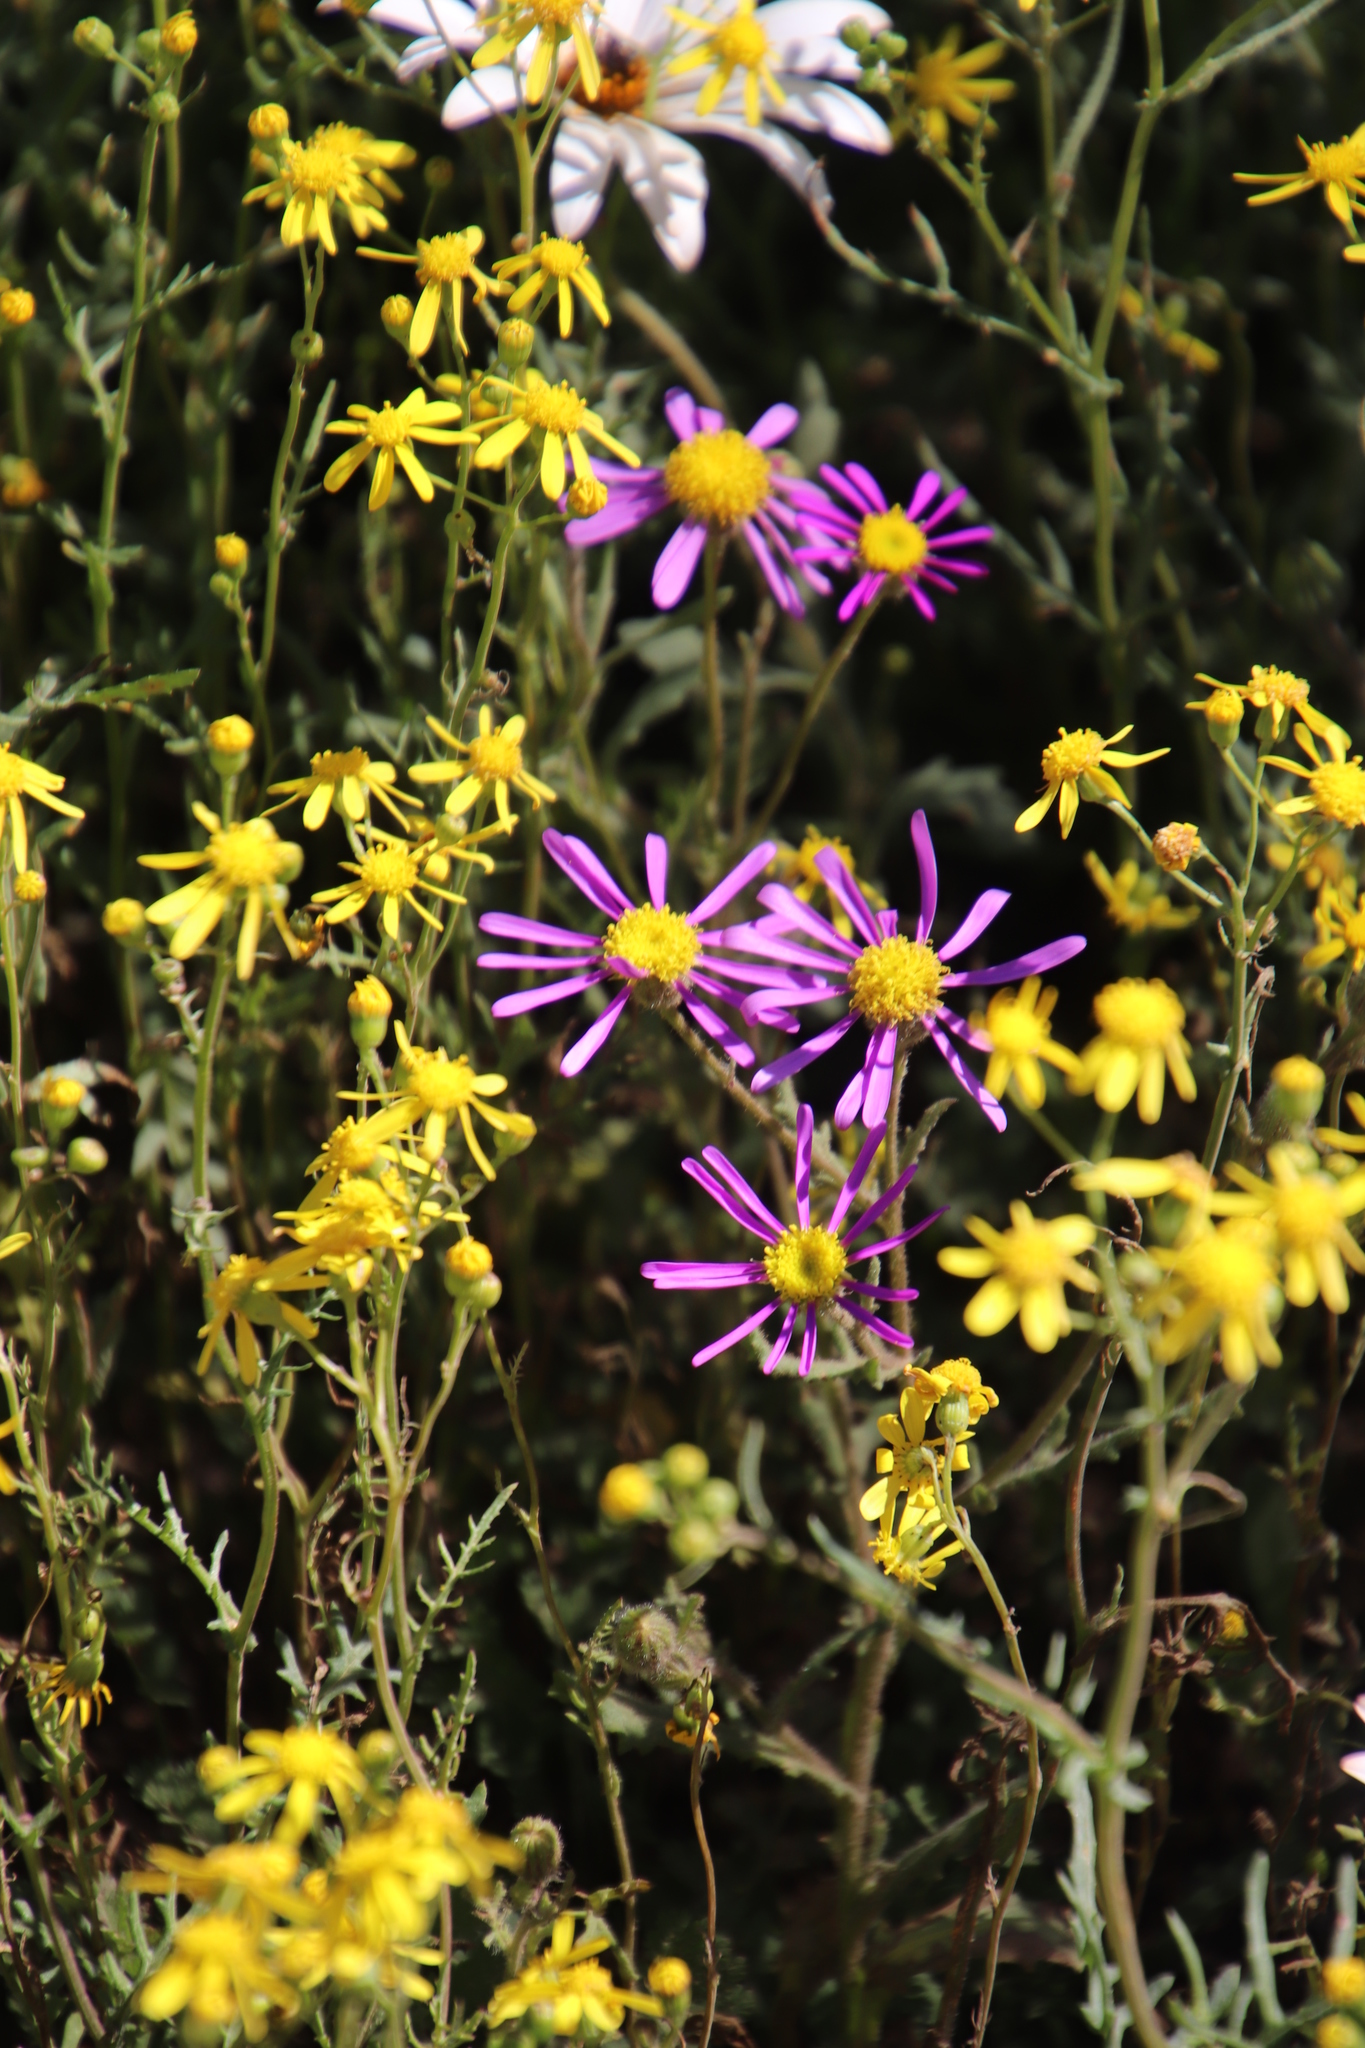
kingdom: Plantae
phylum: Tracheophyta
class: Magnoliopsida
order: Asterales
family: Asteraceae
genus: Senecio
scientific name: Senecio abruptus
